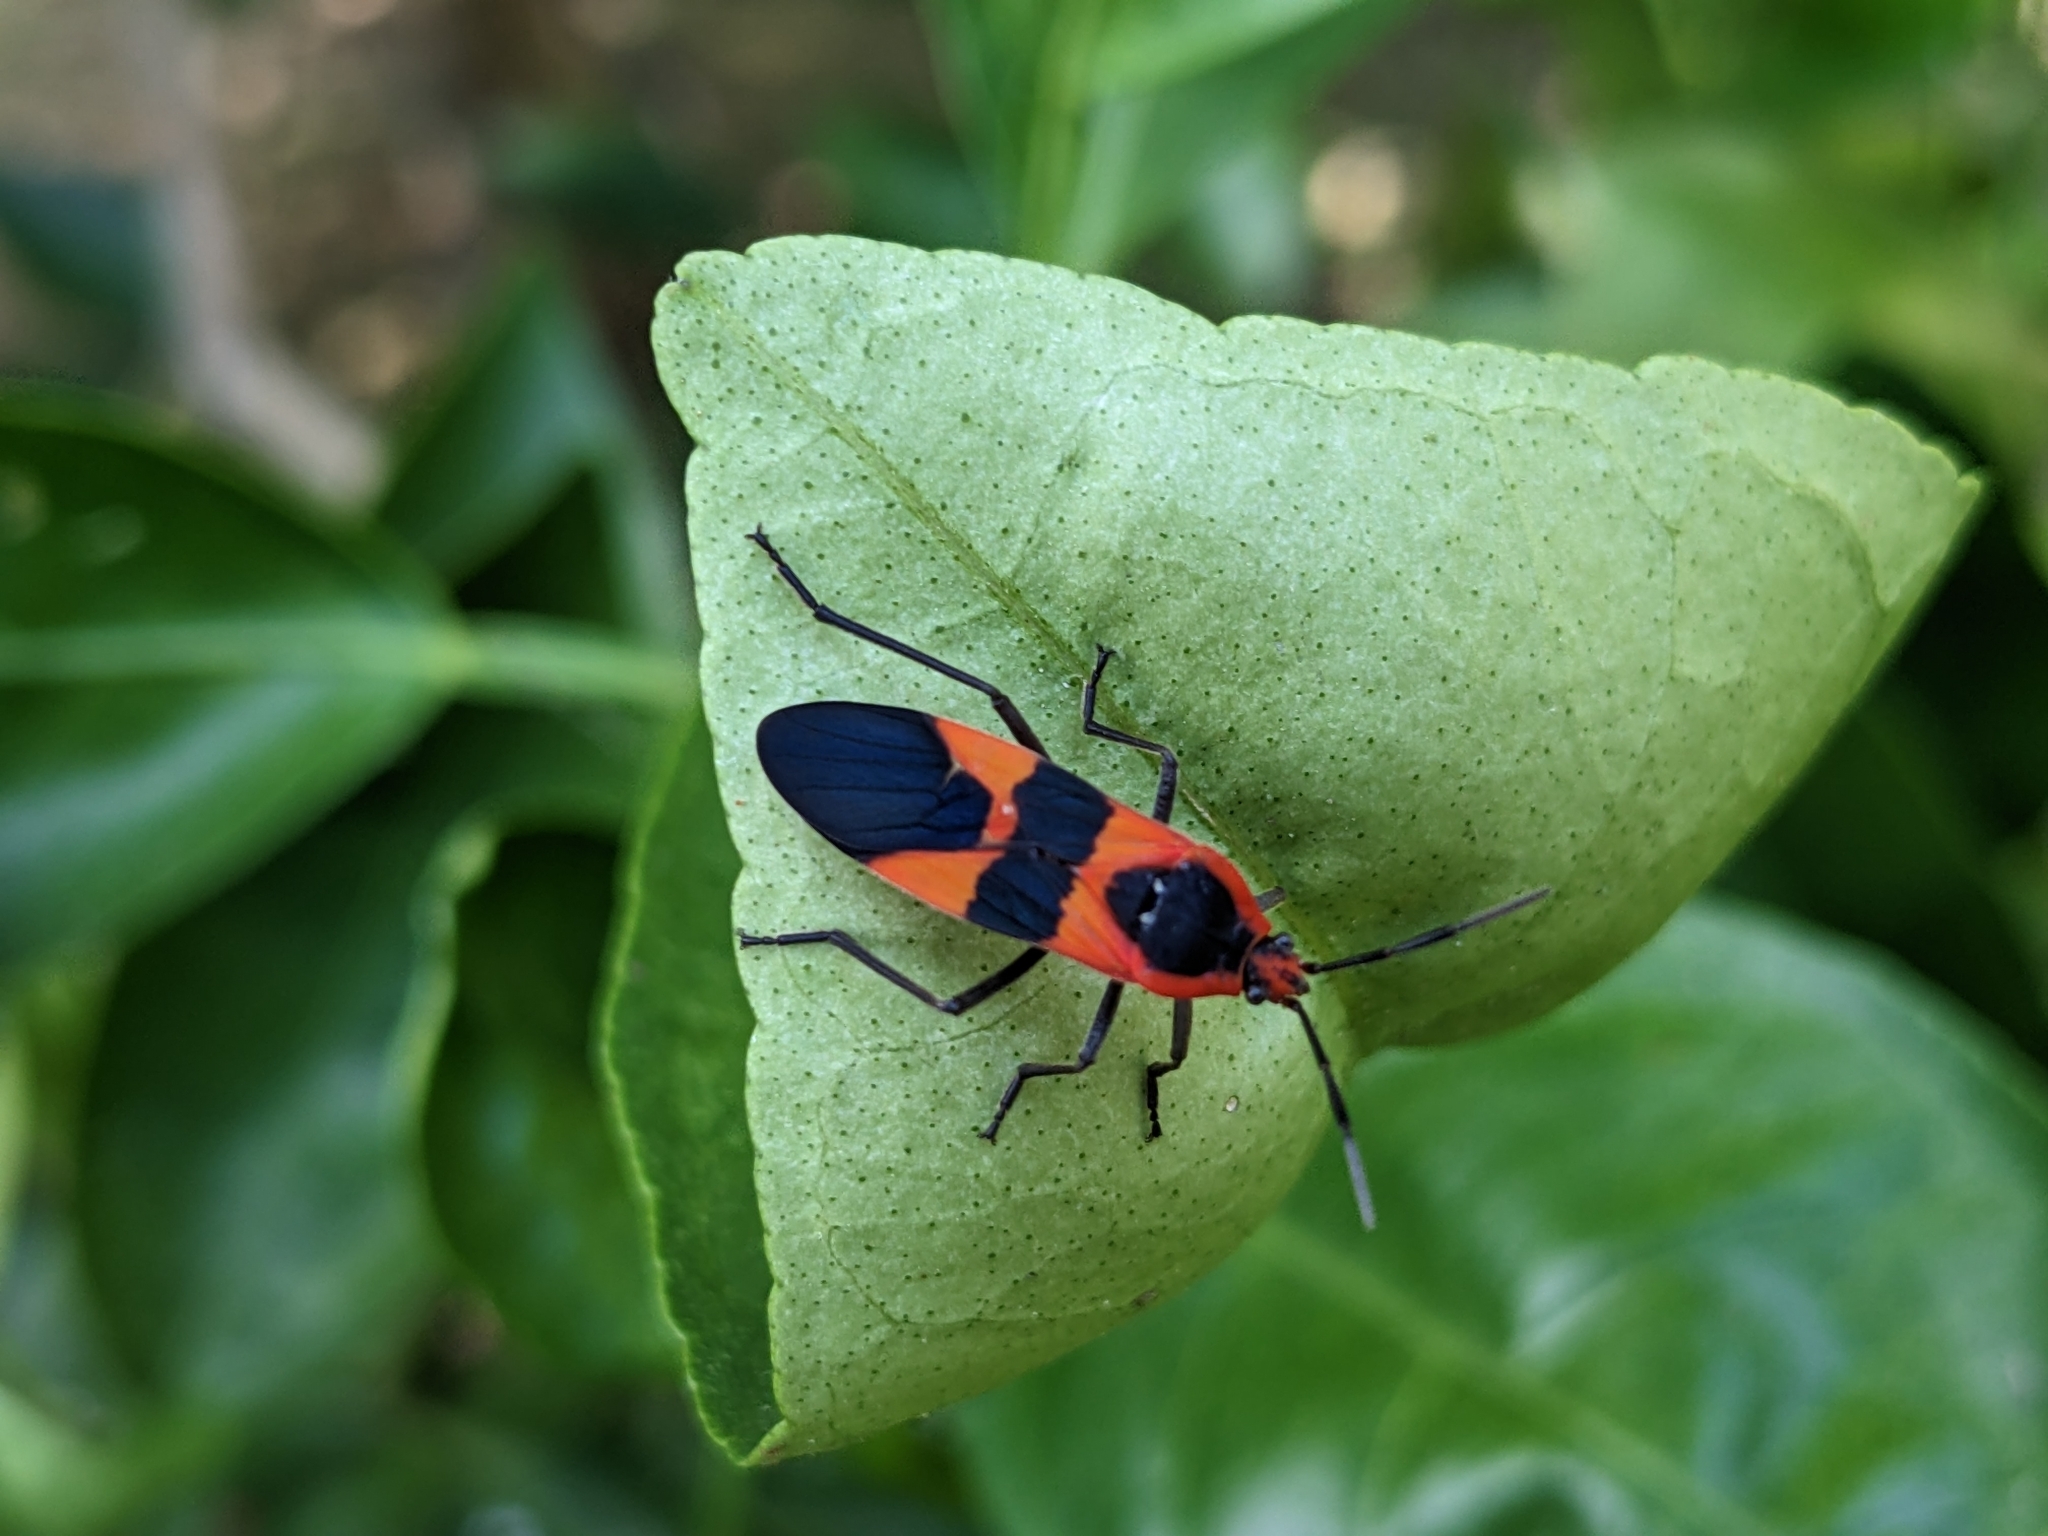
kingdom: Animalia
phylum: Arthropoda
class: Insecta
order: Hemiptera
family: Lygaeidae
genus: Oncopeltus
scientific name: Oncopeltus fasciatus
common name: Large milkweed bug
